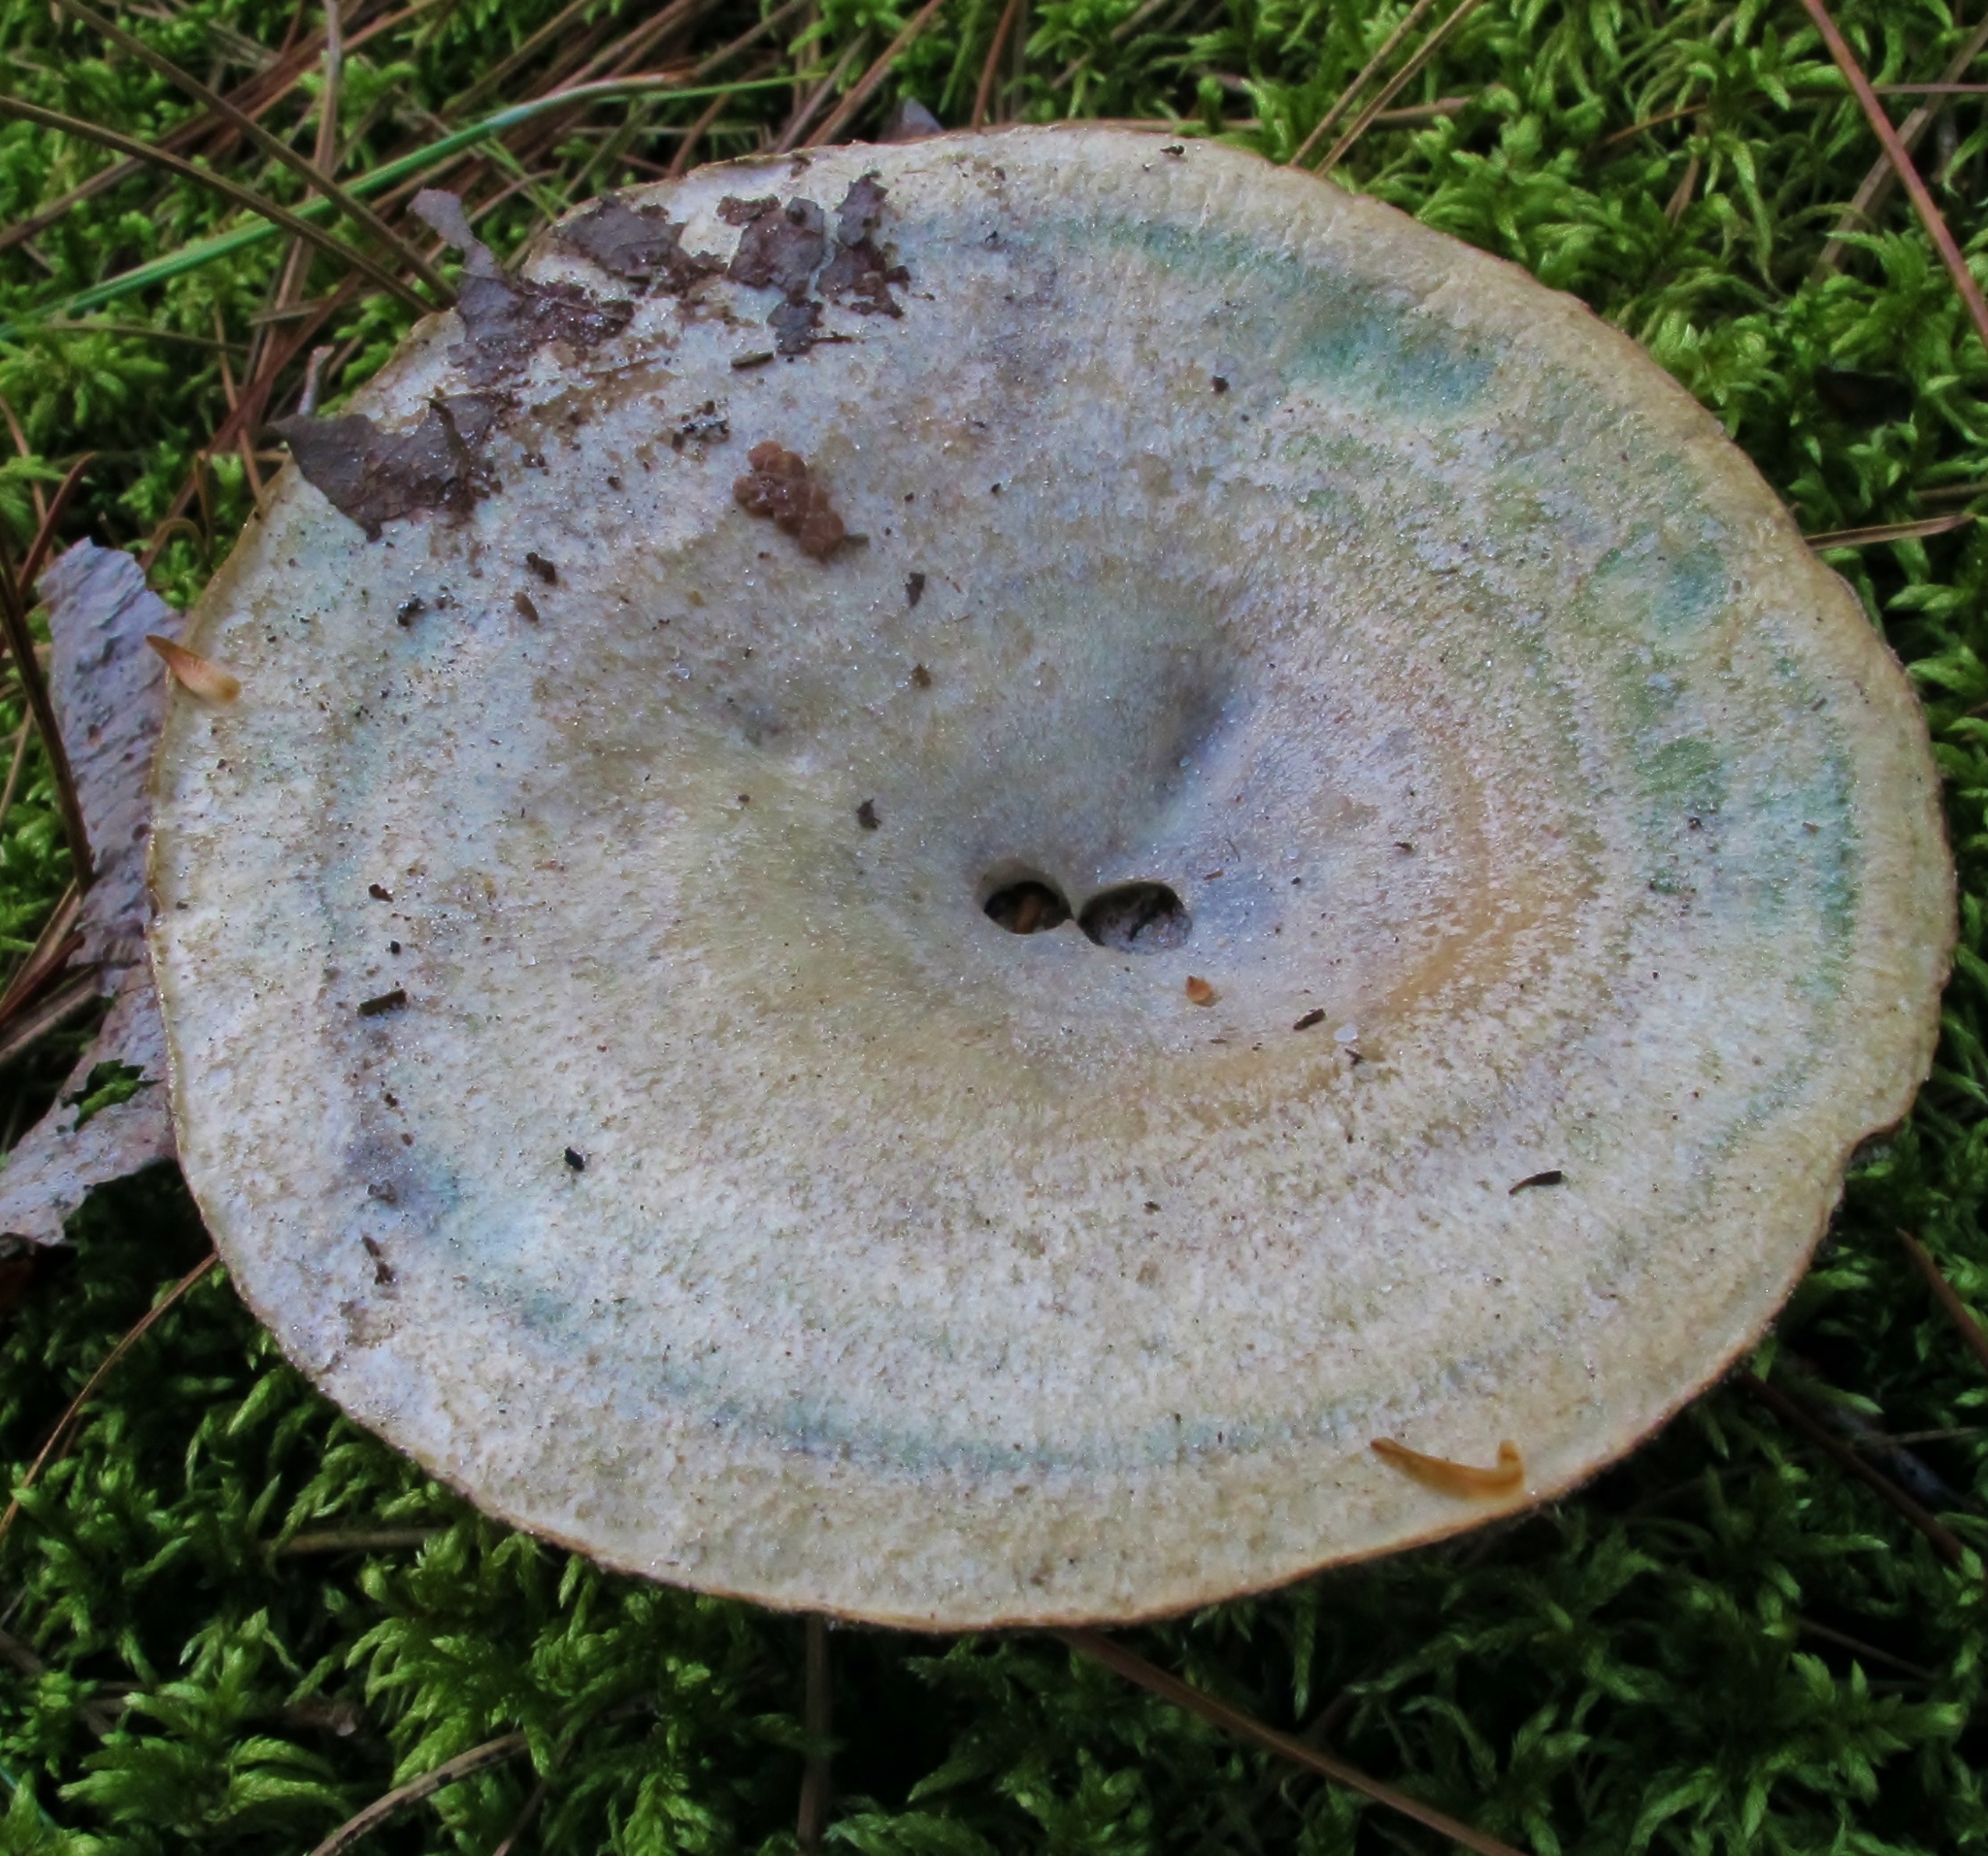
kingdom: Fungi
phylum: Basidiomycota
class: Agaricomycetes
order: Russulales
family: Russulaceae
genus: Lactarius
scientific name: Lactarius paradoxus
